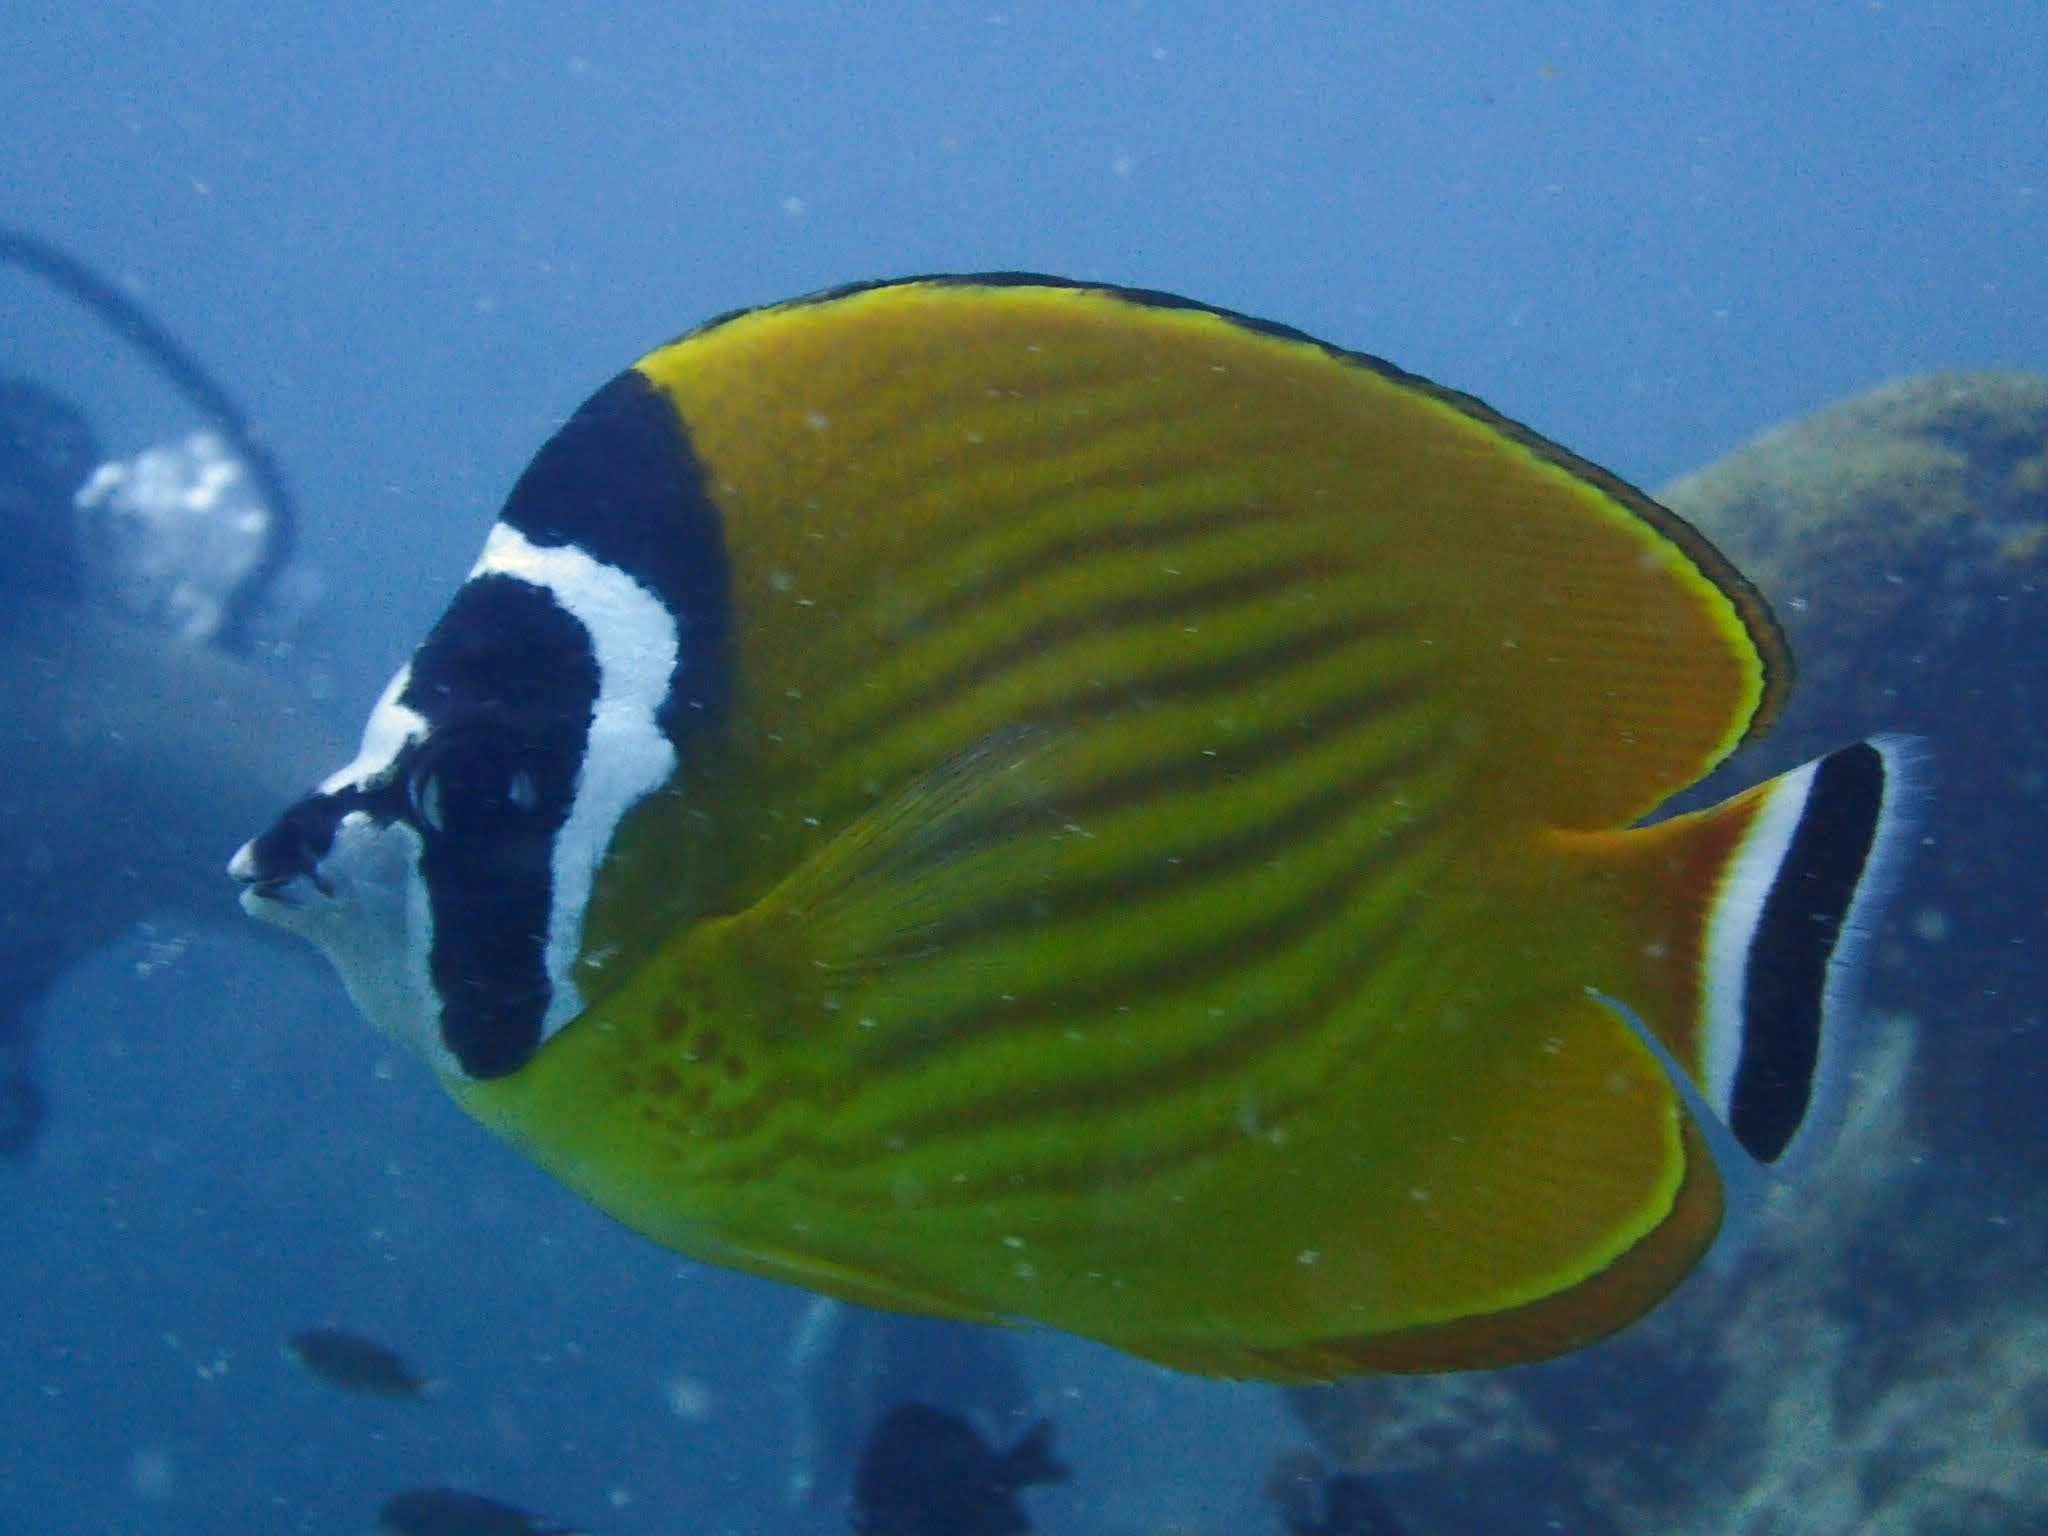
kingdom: Animalia
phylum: Chordata
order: Perciformes
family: Chaetodontidae
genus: Chaetodon
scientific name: Chaetodon wiebeli
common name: Butterflyfish
